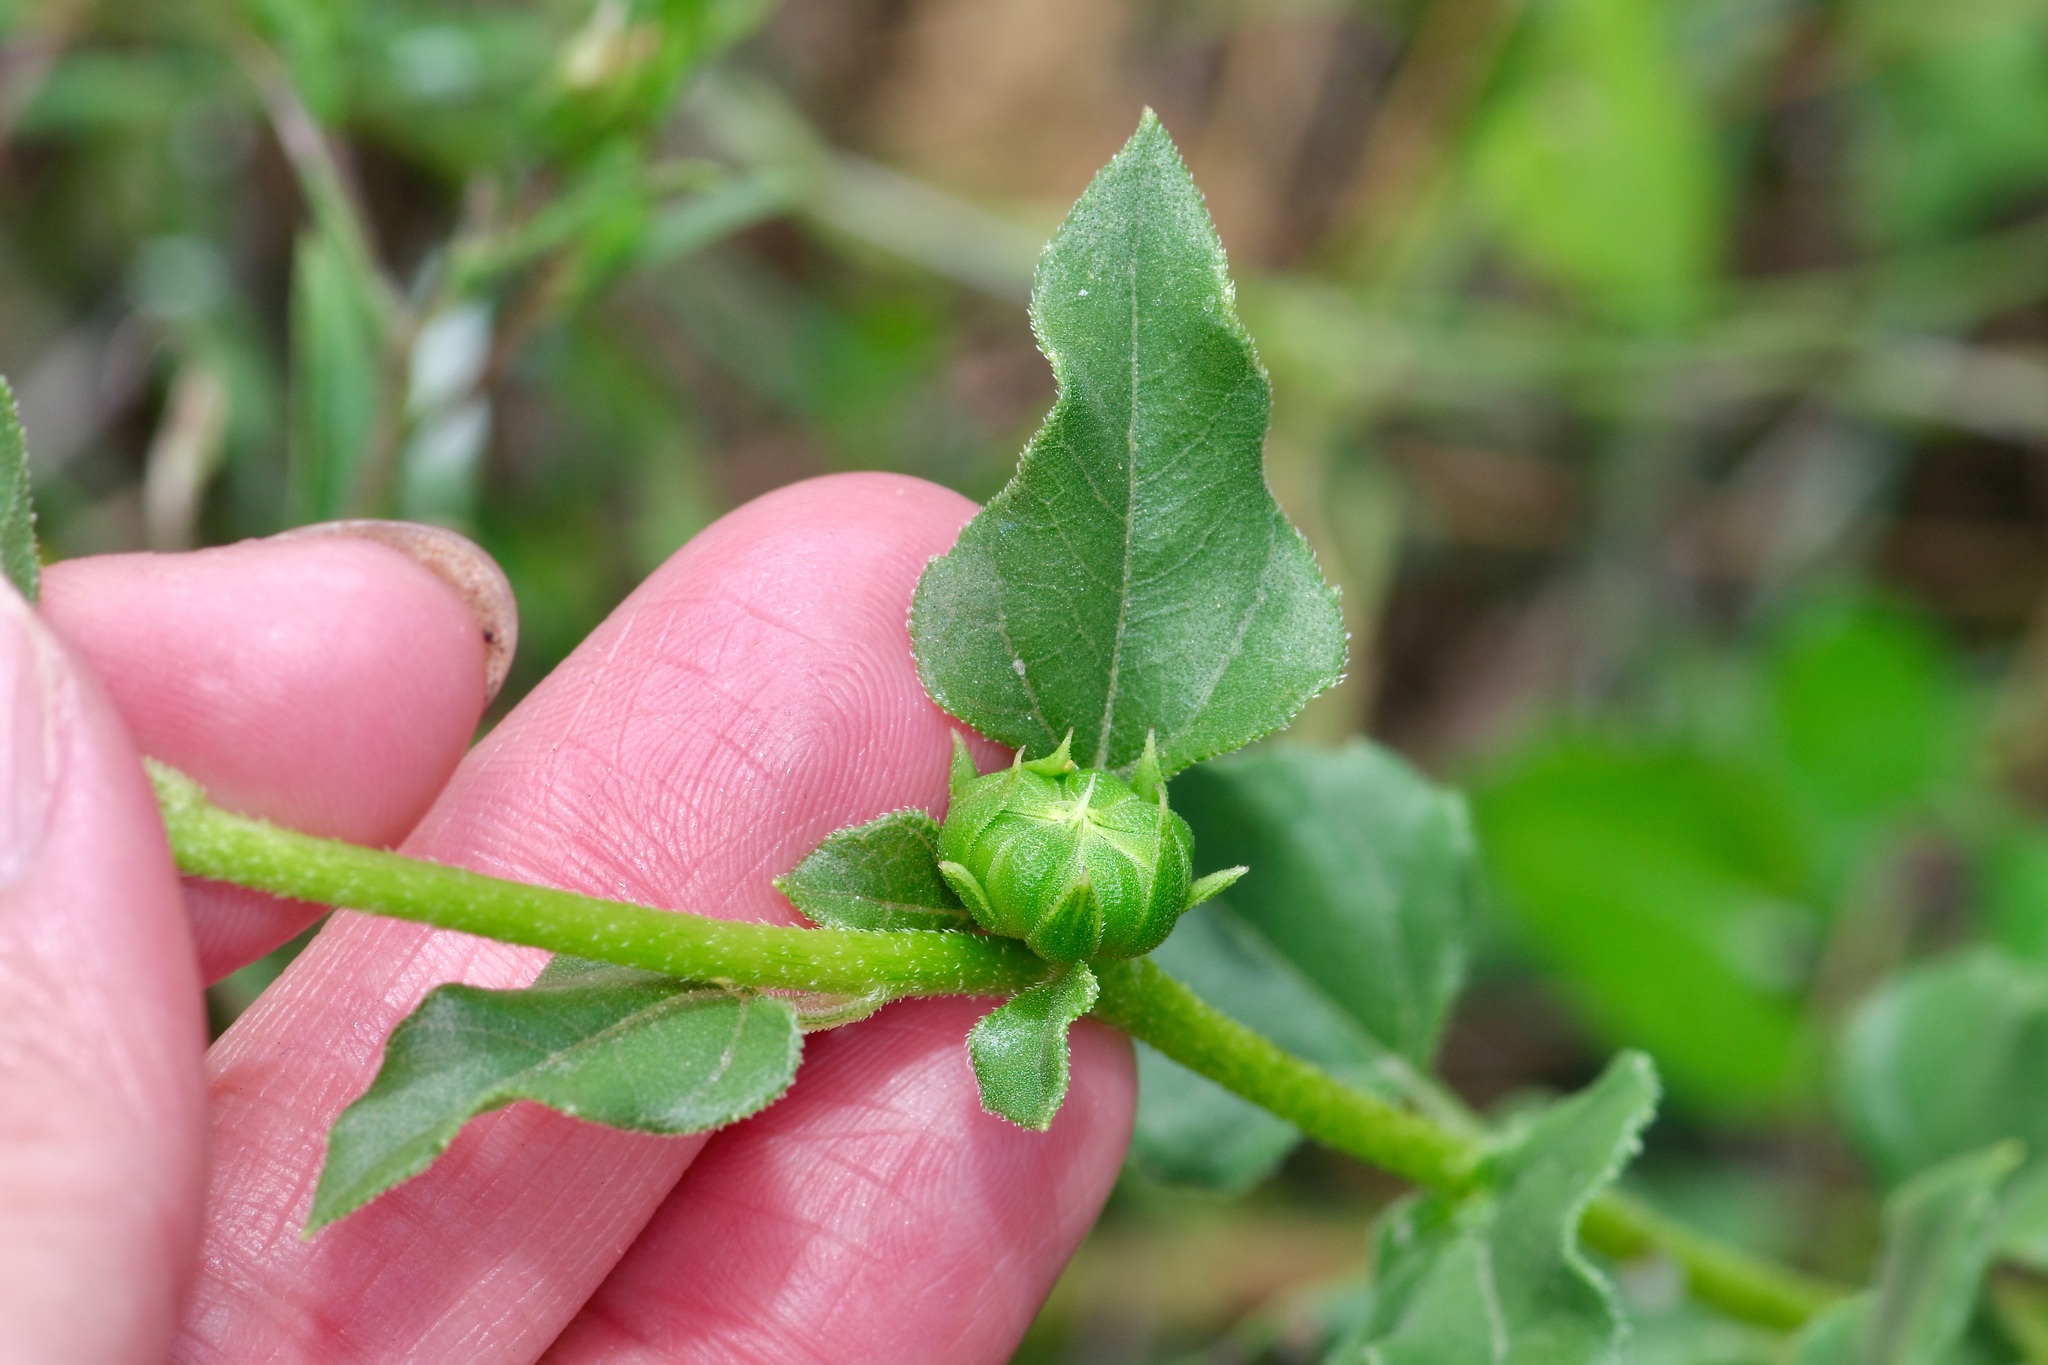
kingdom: Plantae
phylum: Tracheophyta
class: Magnoliopsida
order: Asterales
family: Asteraceae
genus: Helianthus
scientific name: Helianthus praecox
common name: Texas sunflower
